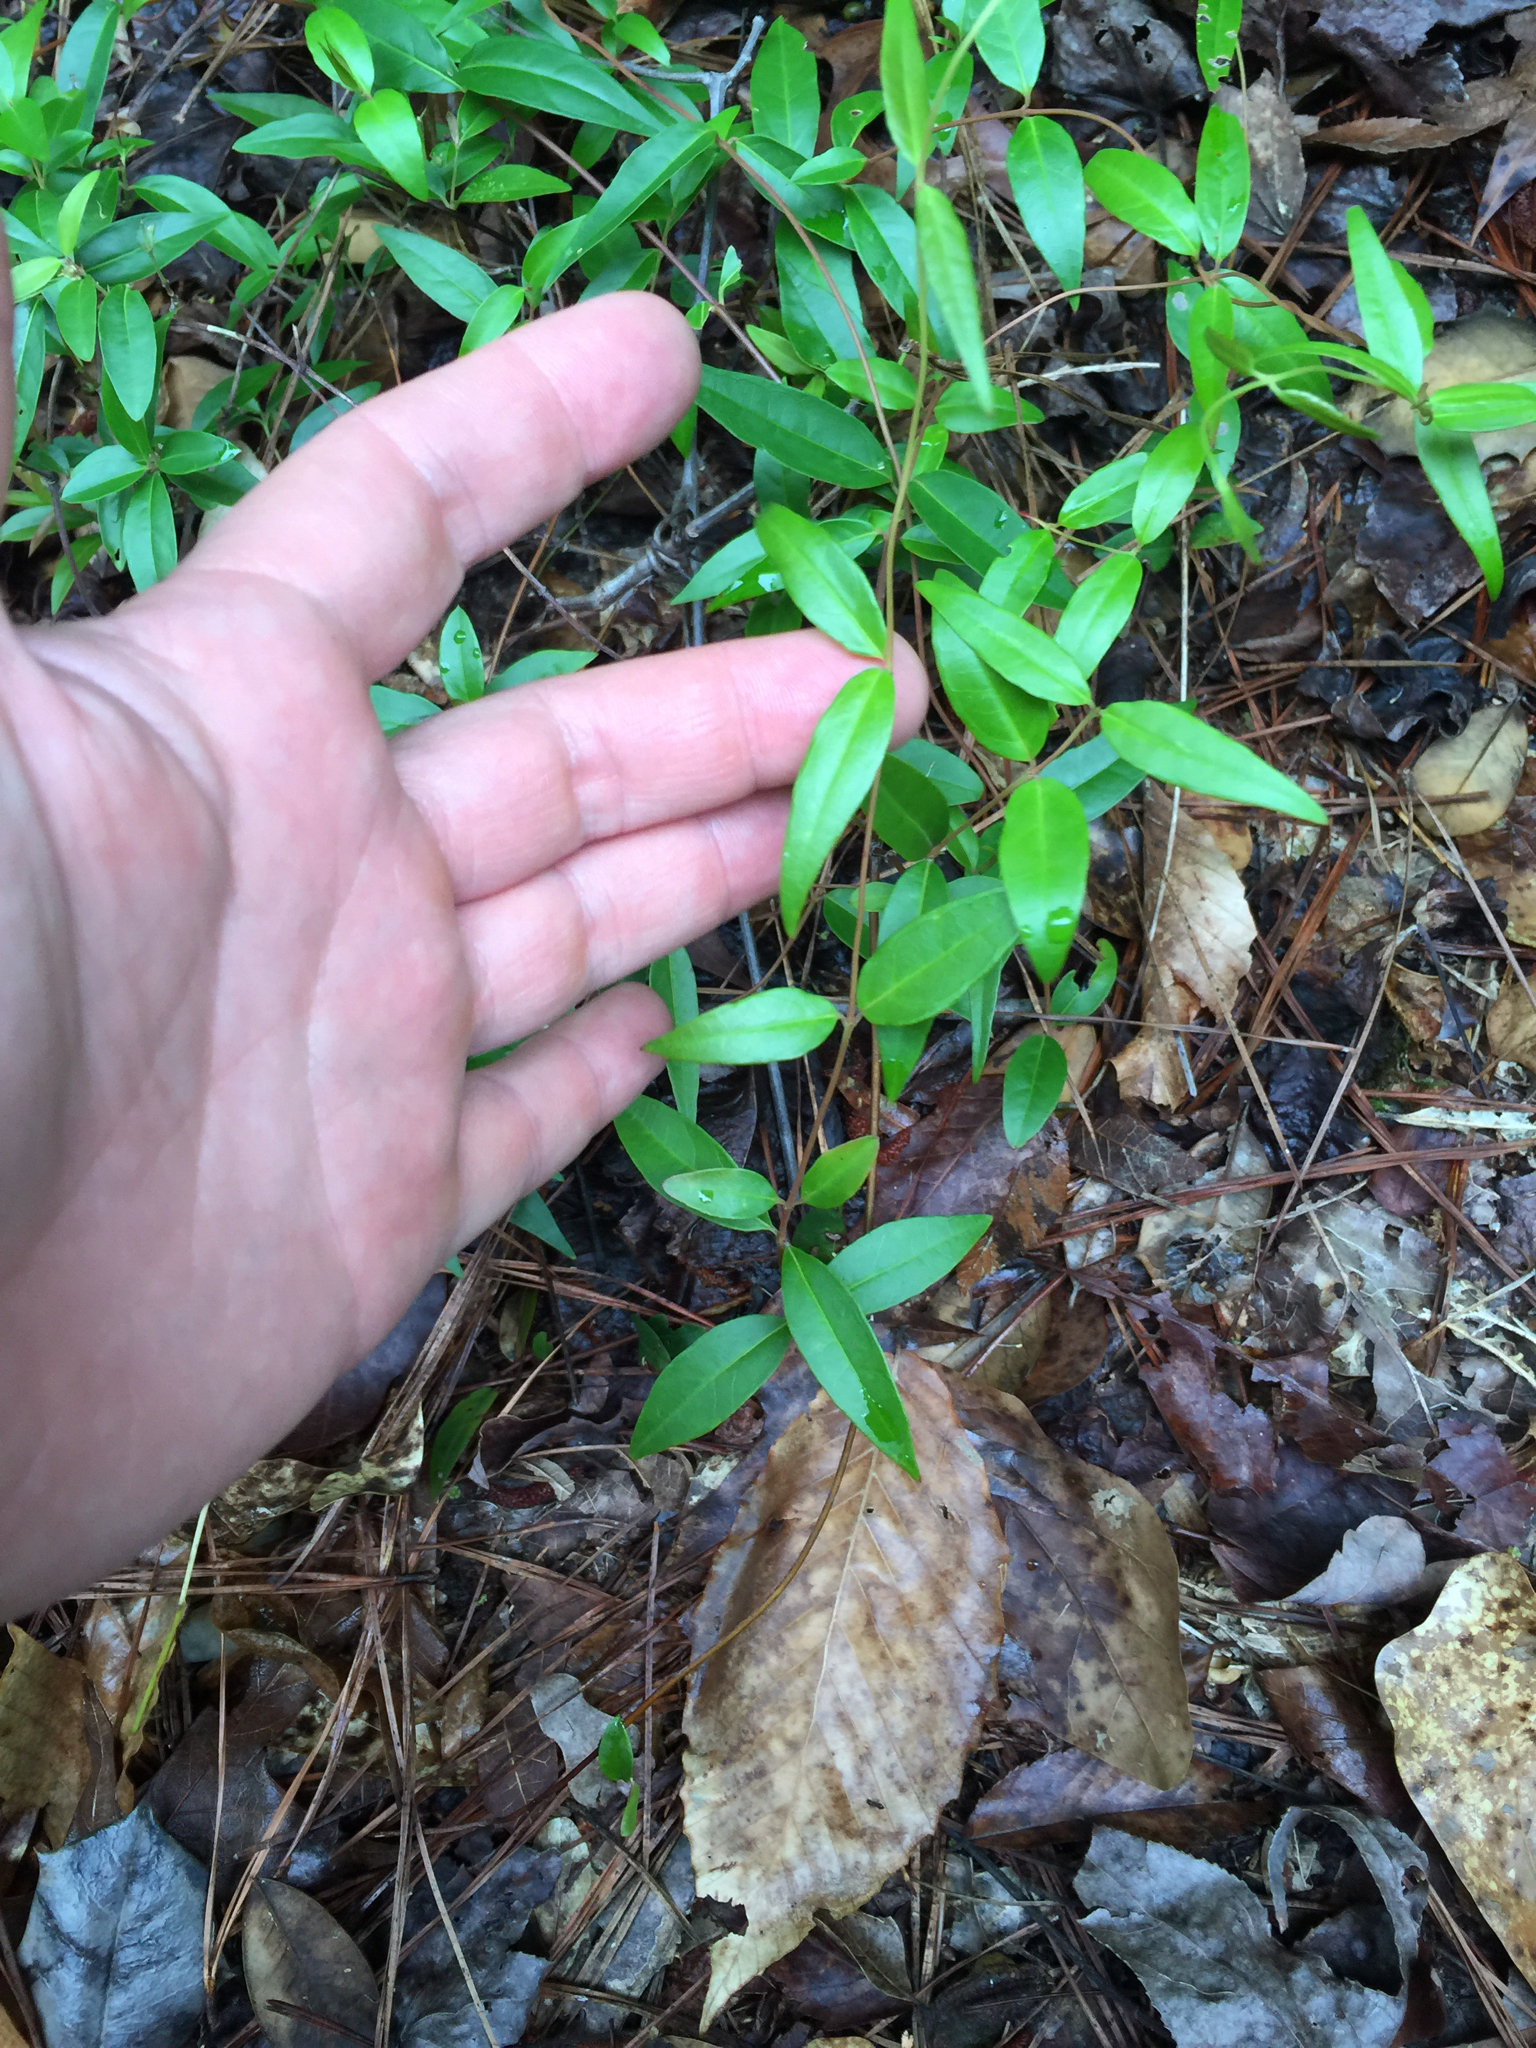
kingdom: Plantae
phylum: Tracheophyta
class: Magnoliopsida
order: Gentianales
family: Gelsemiaceae
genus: Gelsemium
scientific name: Gelsemium sempervirens
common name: Carolina-jasmine
